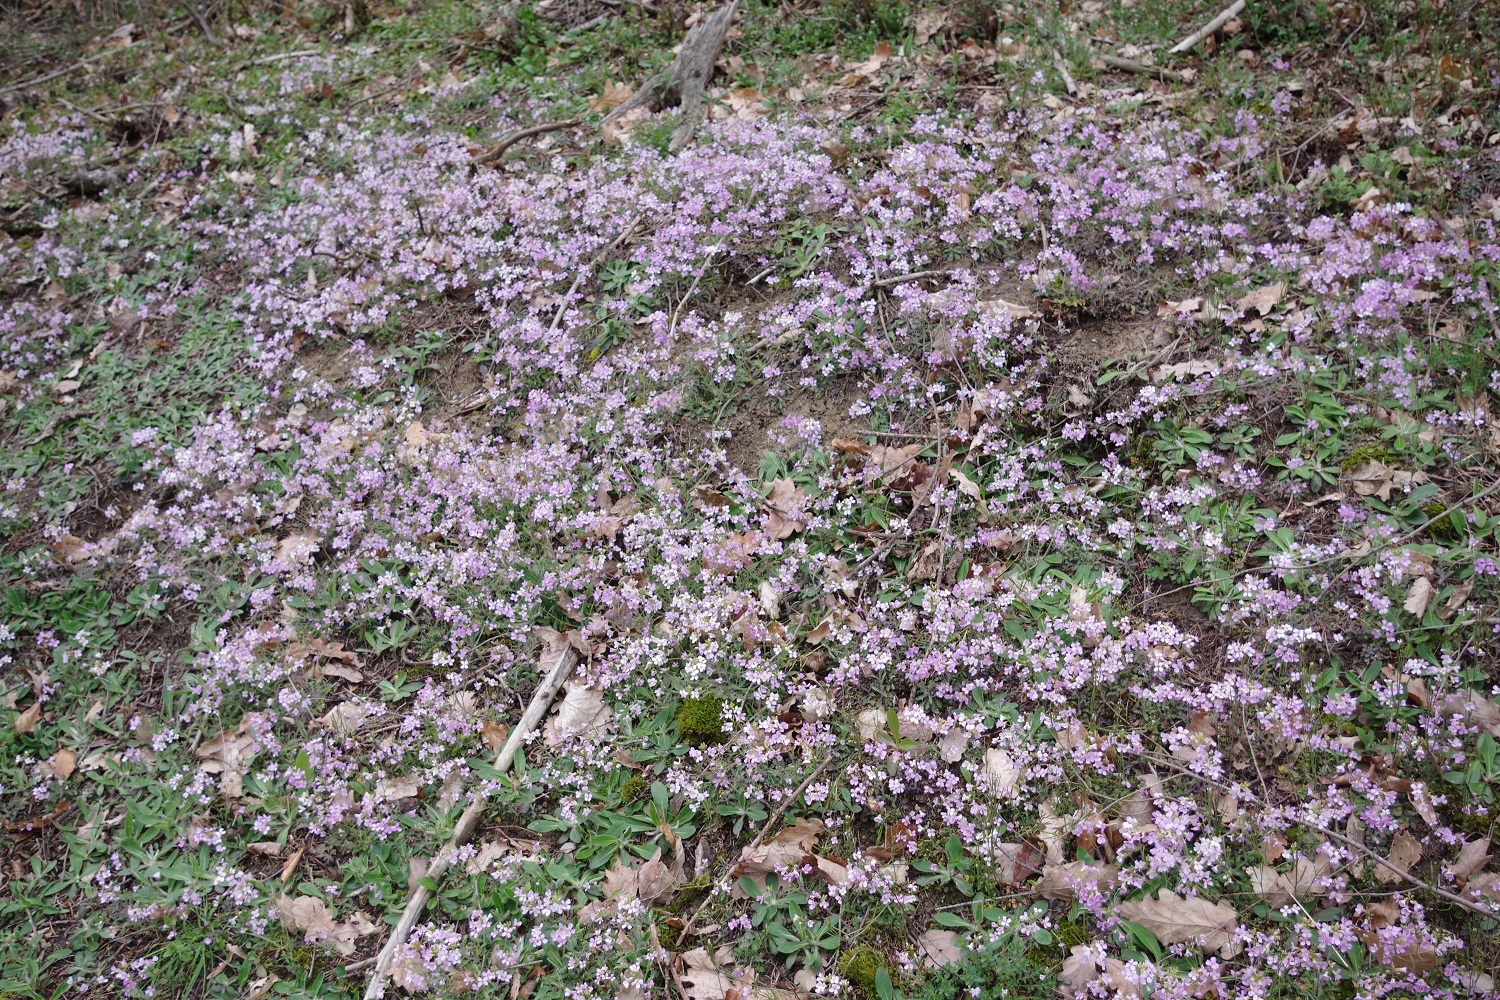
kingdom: Plantae
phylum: Tracheophyta
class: Magnoliopsida
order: Brassicales
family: Brassicaceae
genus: Arabidopsis
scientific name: Arabidopsis arenosa
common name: Sand rock-cress
